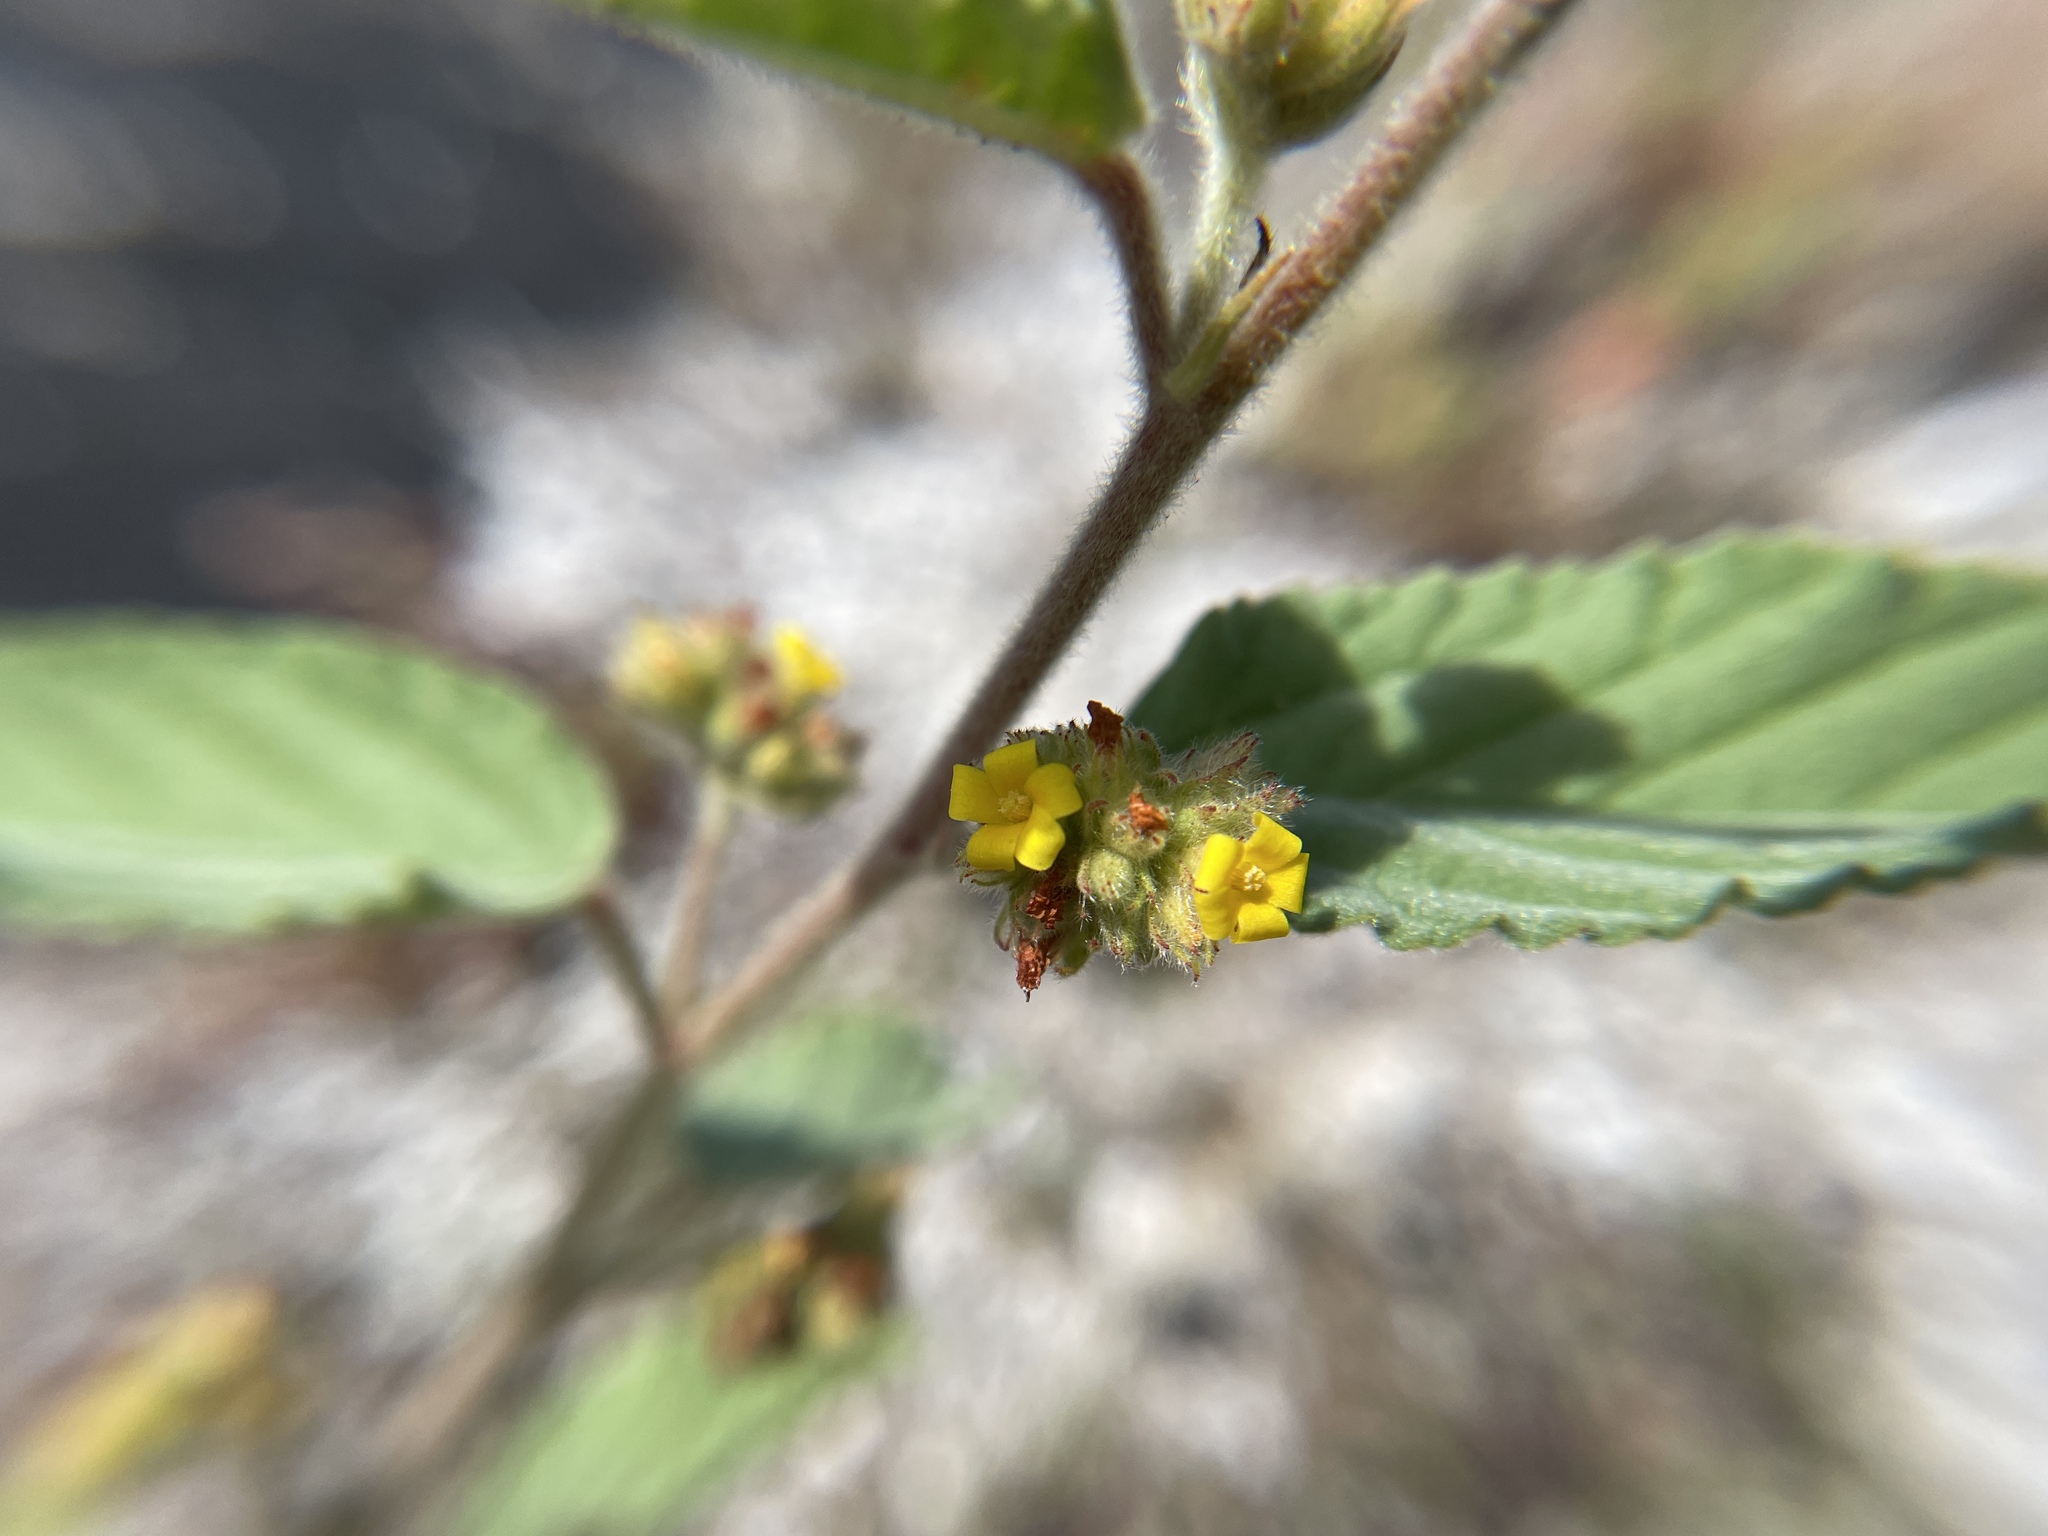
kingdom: Plantae
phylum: Tracheophyta
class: Magnoliopsida
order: Malvales
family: Malvaceae
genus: Waltheria
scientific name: Waltheria indica
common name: Leather-coat
